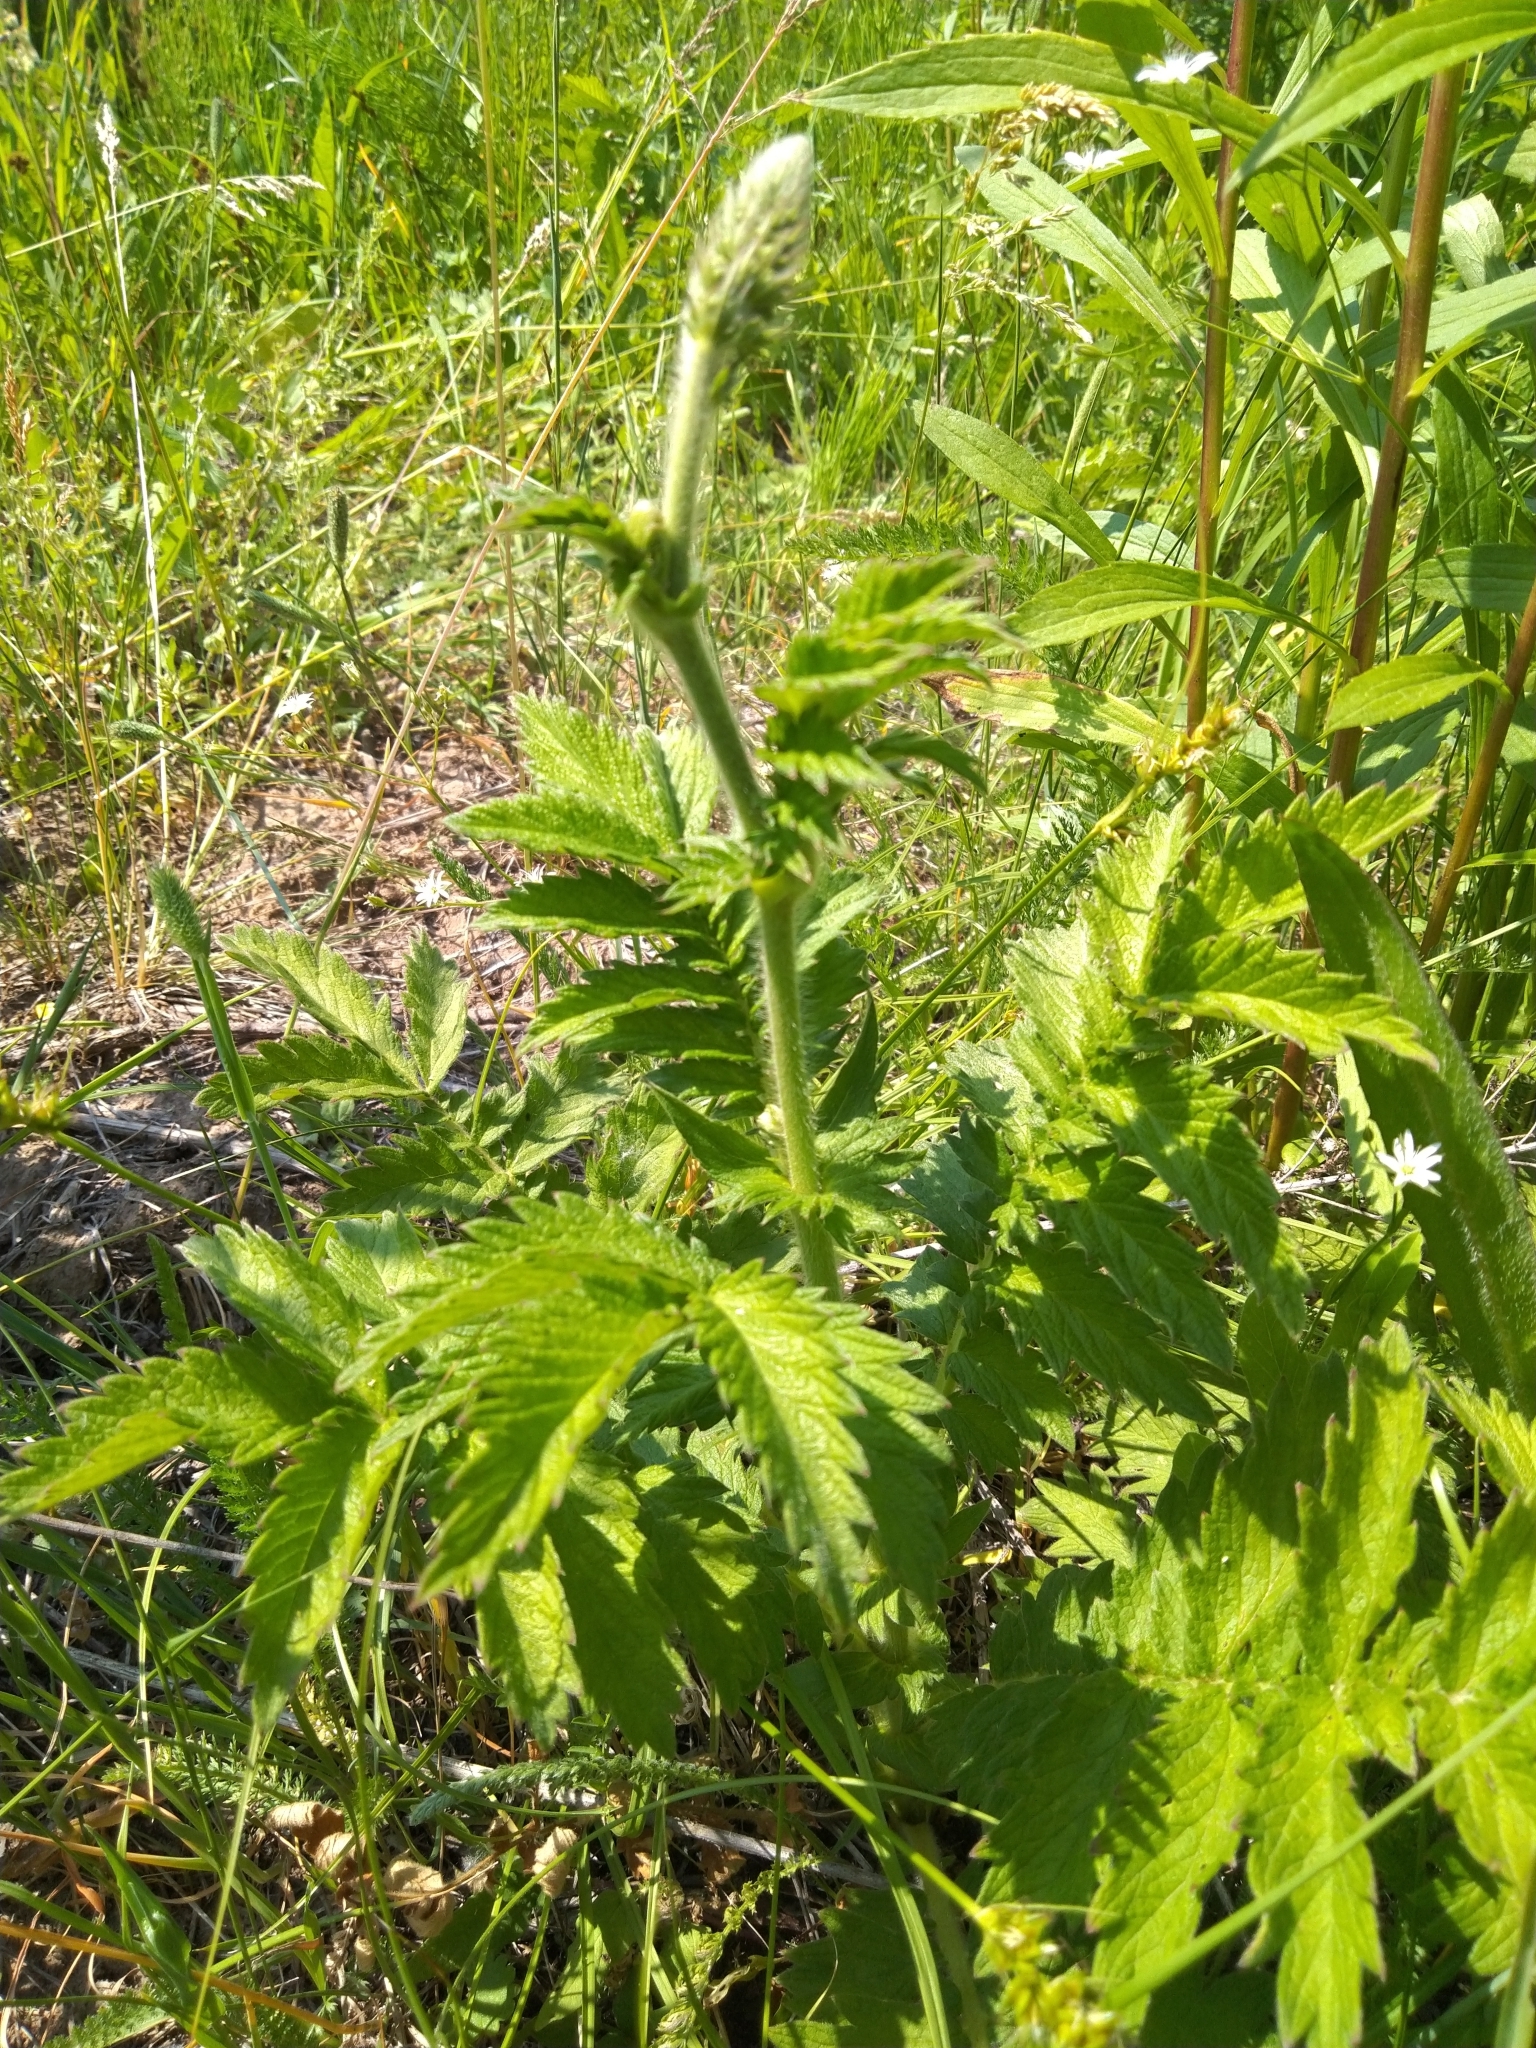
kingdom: Plantae
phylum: Tracheophyta
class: Magnoliopsida
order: Rosales
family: Rosaceae
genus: Agrimonia
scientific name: Agrimonia eupatoria
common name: Agrimony
